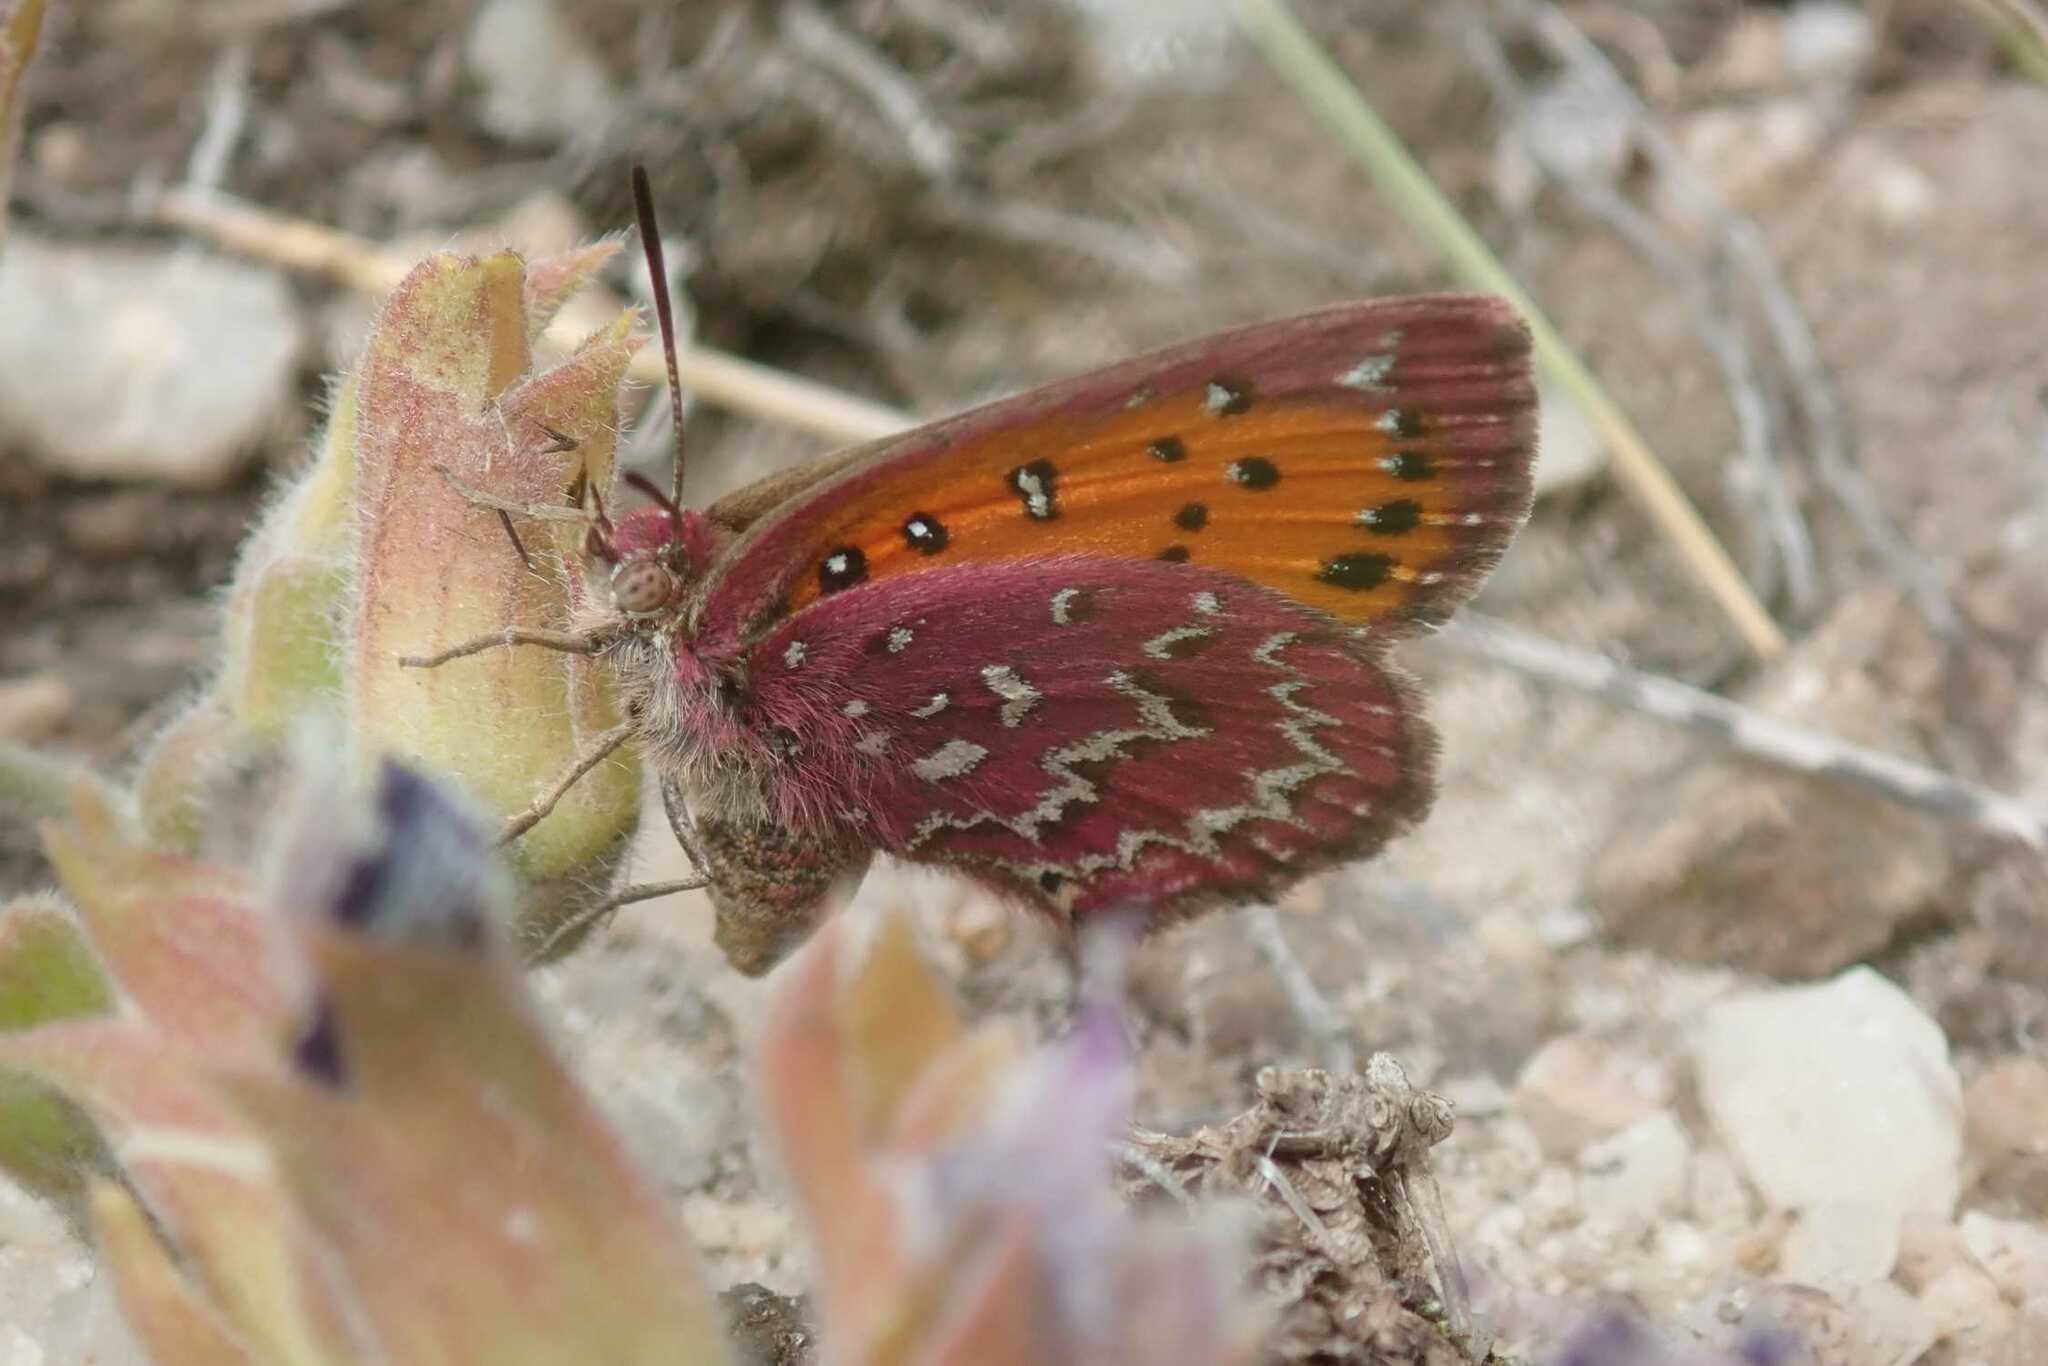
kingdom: Animalia
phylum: Arthropoda
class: Insecta
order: Lepidoptera
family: Lycaenidae
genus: Aloeides
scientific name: Aloeides dryas
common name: Transvaal copper
